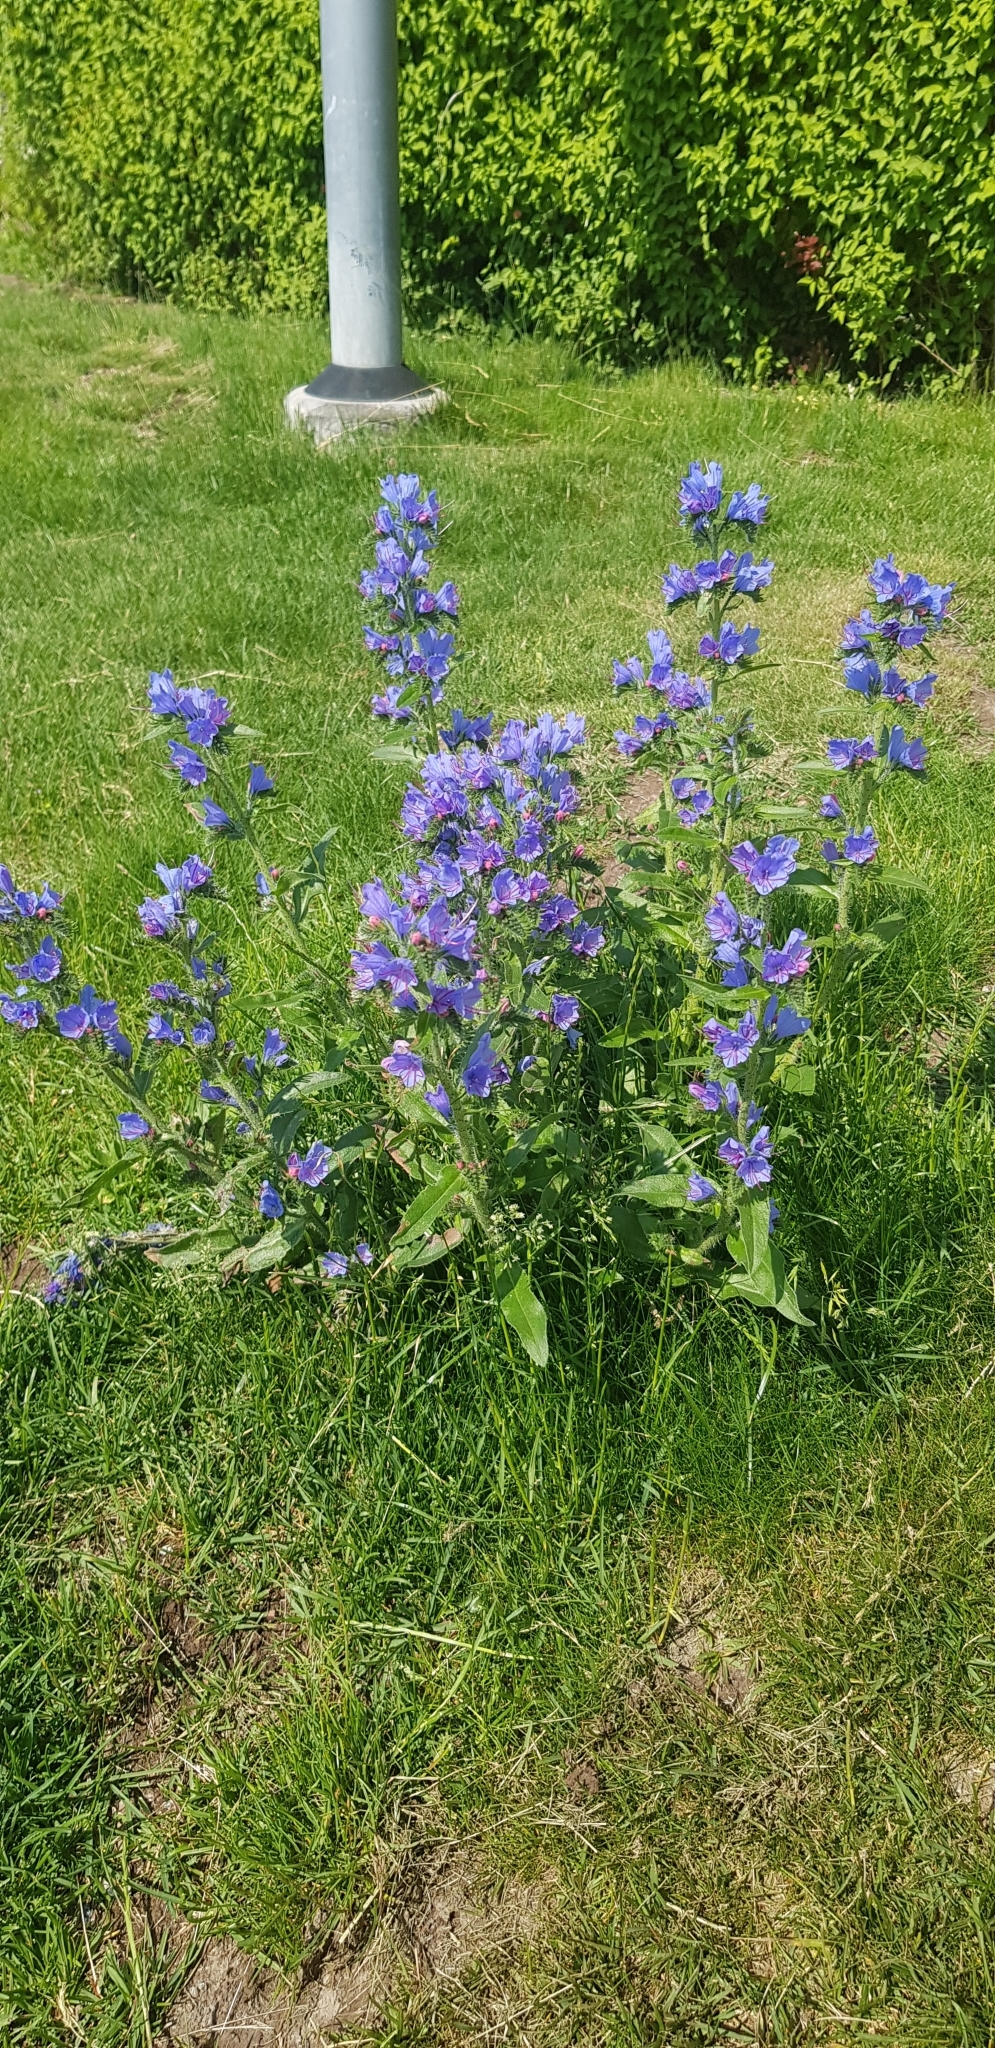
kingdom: Plantae
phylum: Tracheophyta
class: Magnoliopsida
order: Boraginales
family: Boraginaceae
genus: Echium
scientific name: Echium vulgare
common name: Common viper's bugloss
